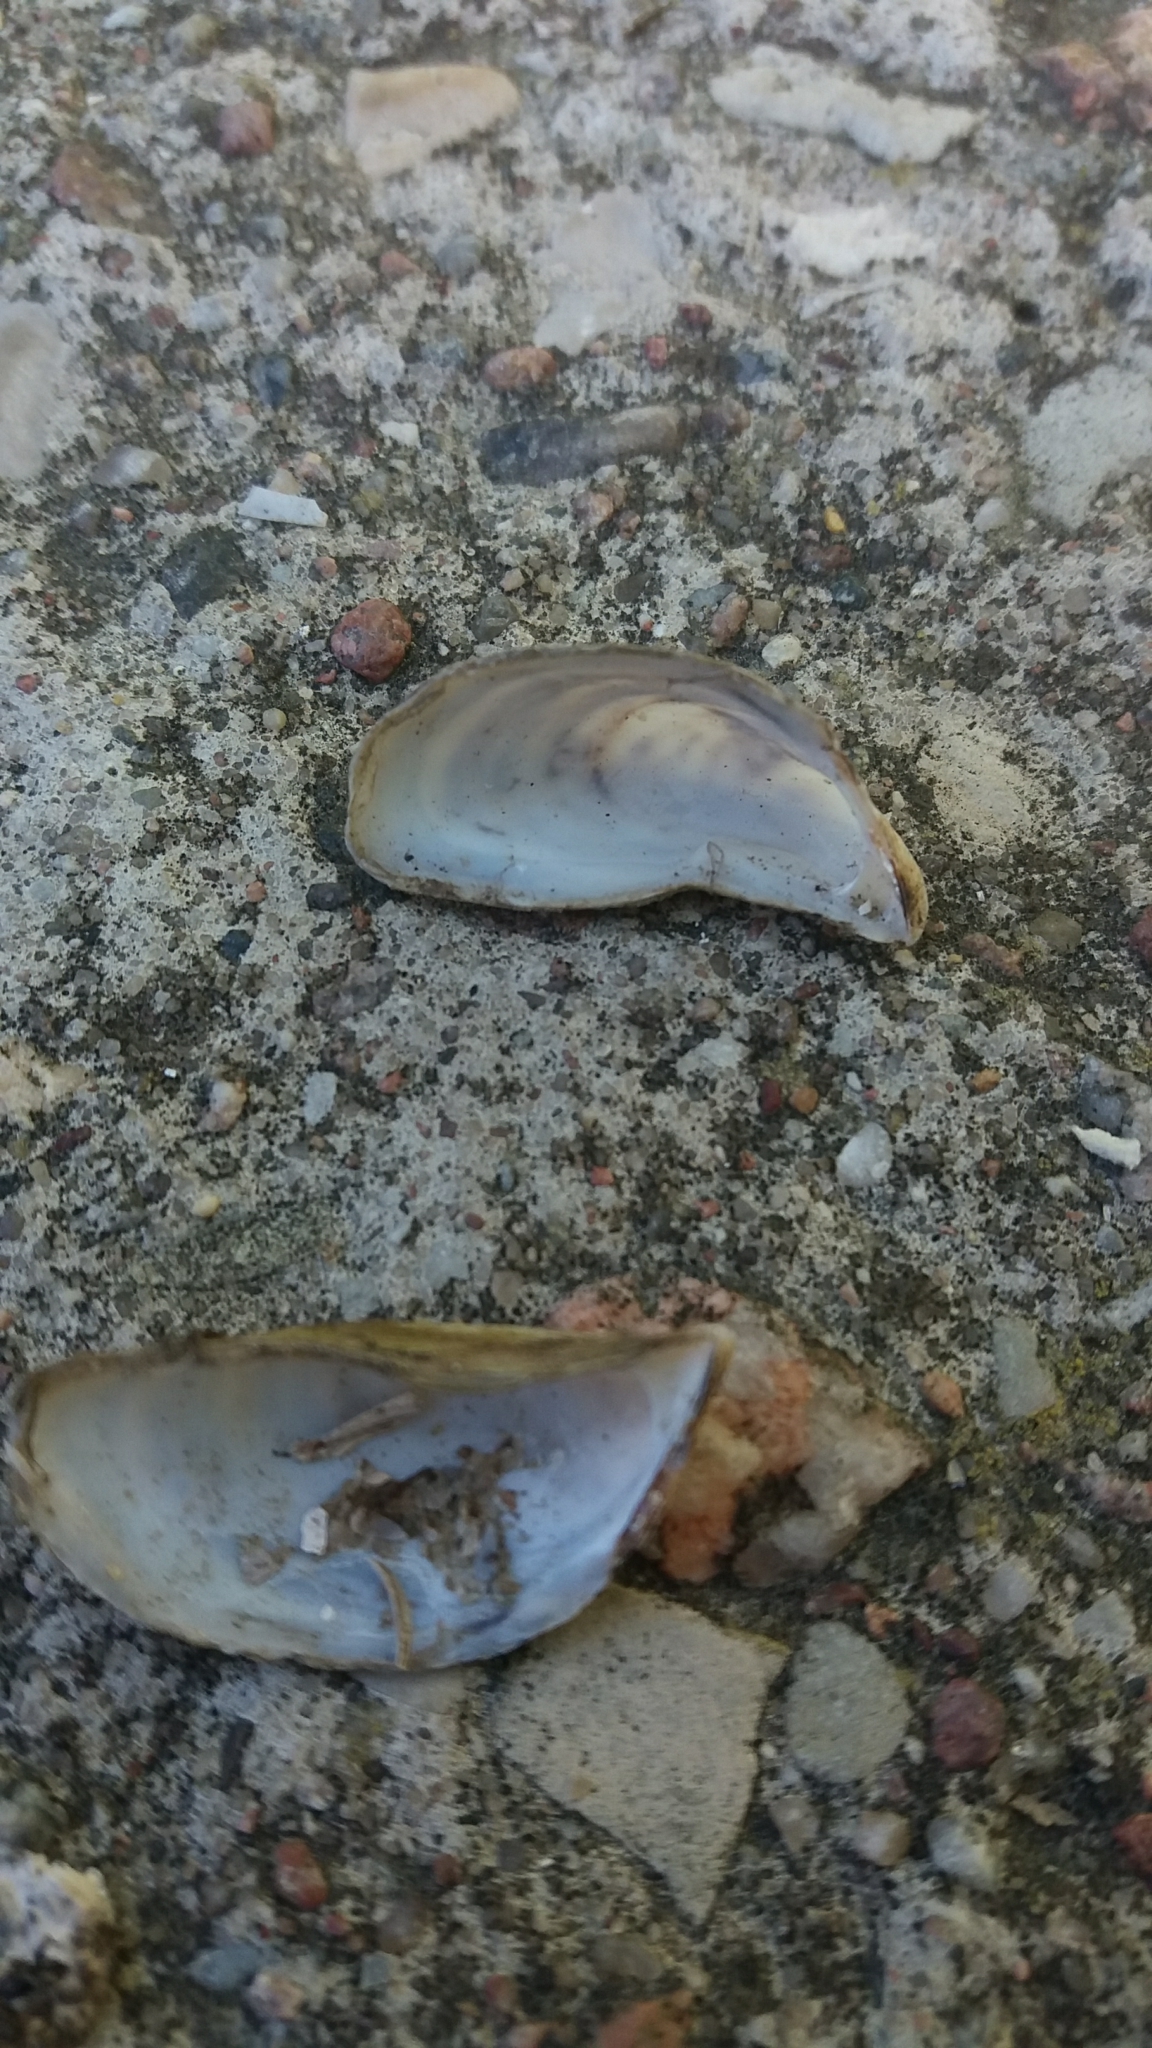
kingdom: Animalia
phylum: Mollusca
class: Bivalvia
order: Myida
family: Dreissenidae
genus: Dreissena
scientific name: Dreissena polymorpha
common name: Zebra mussel
